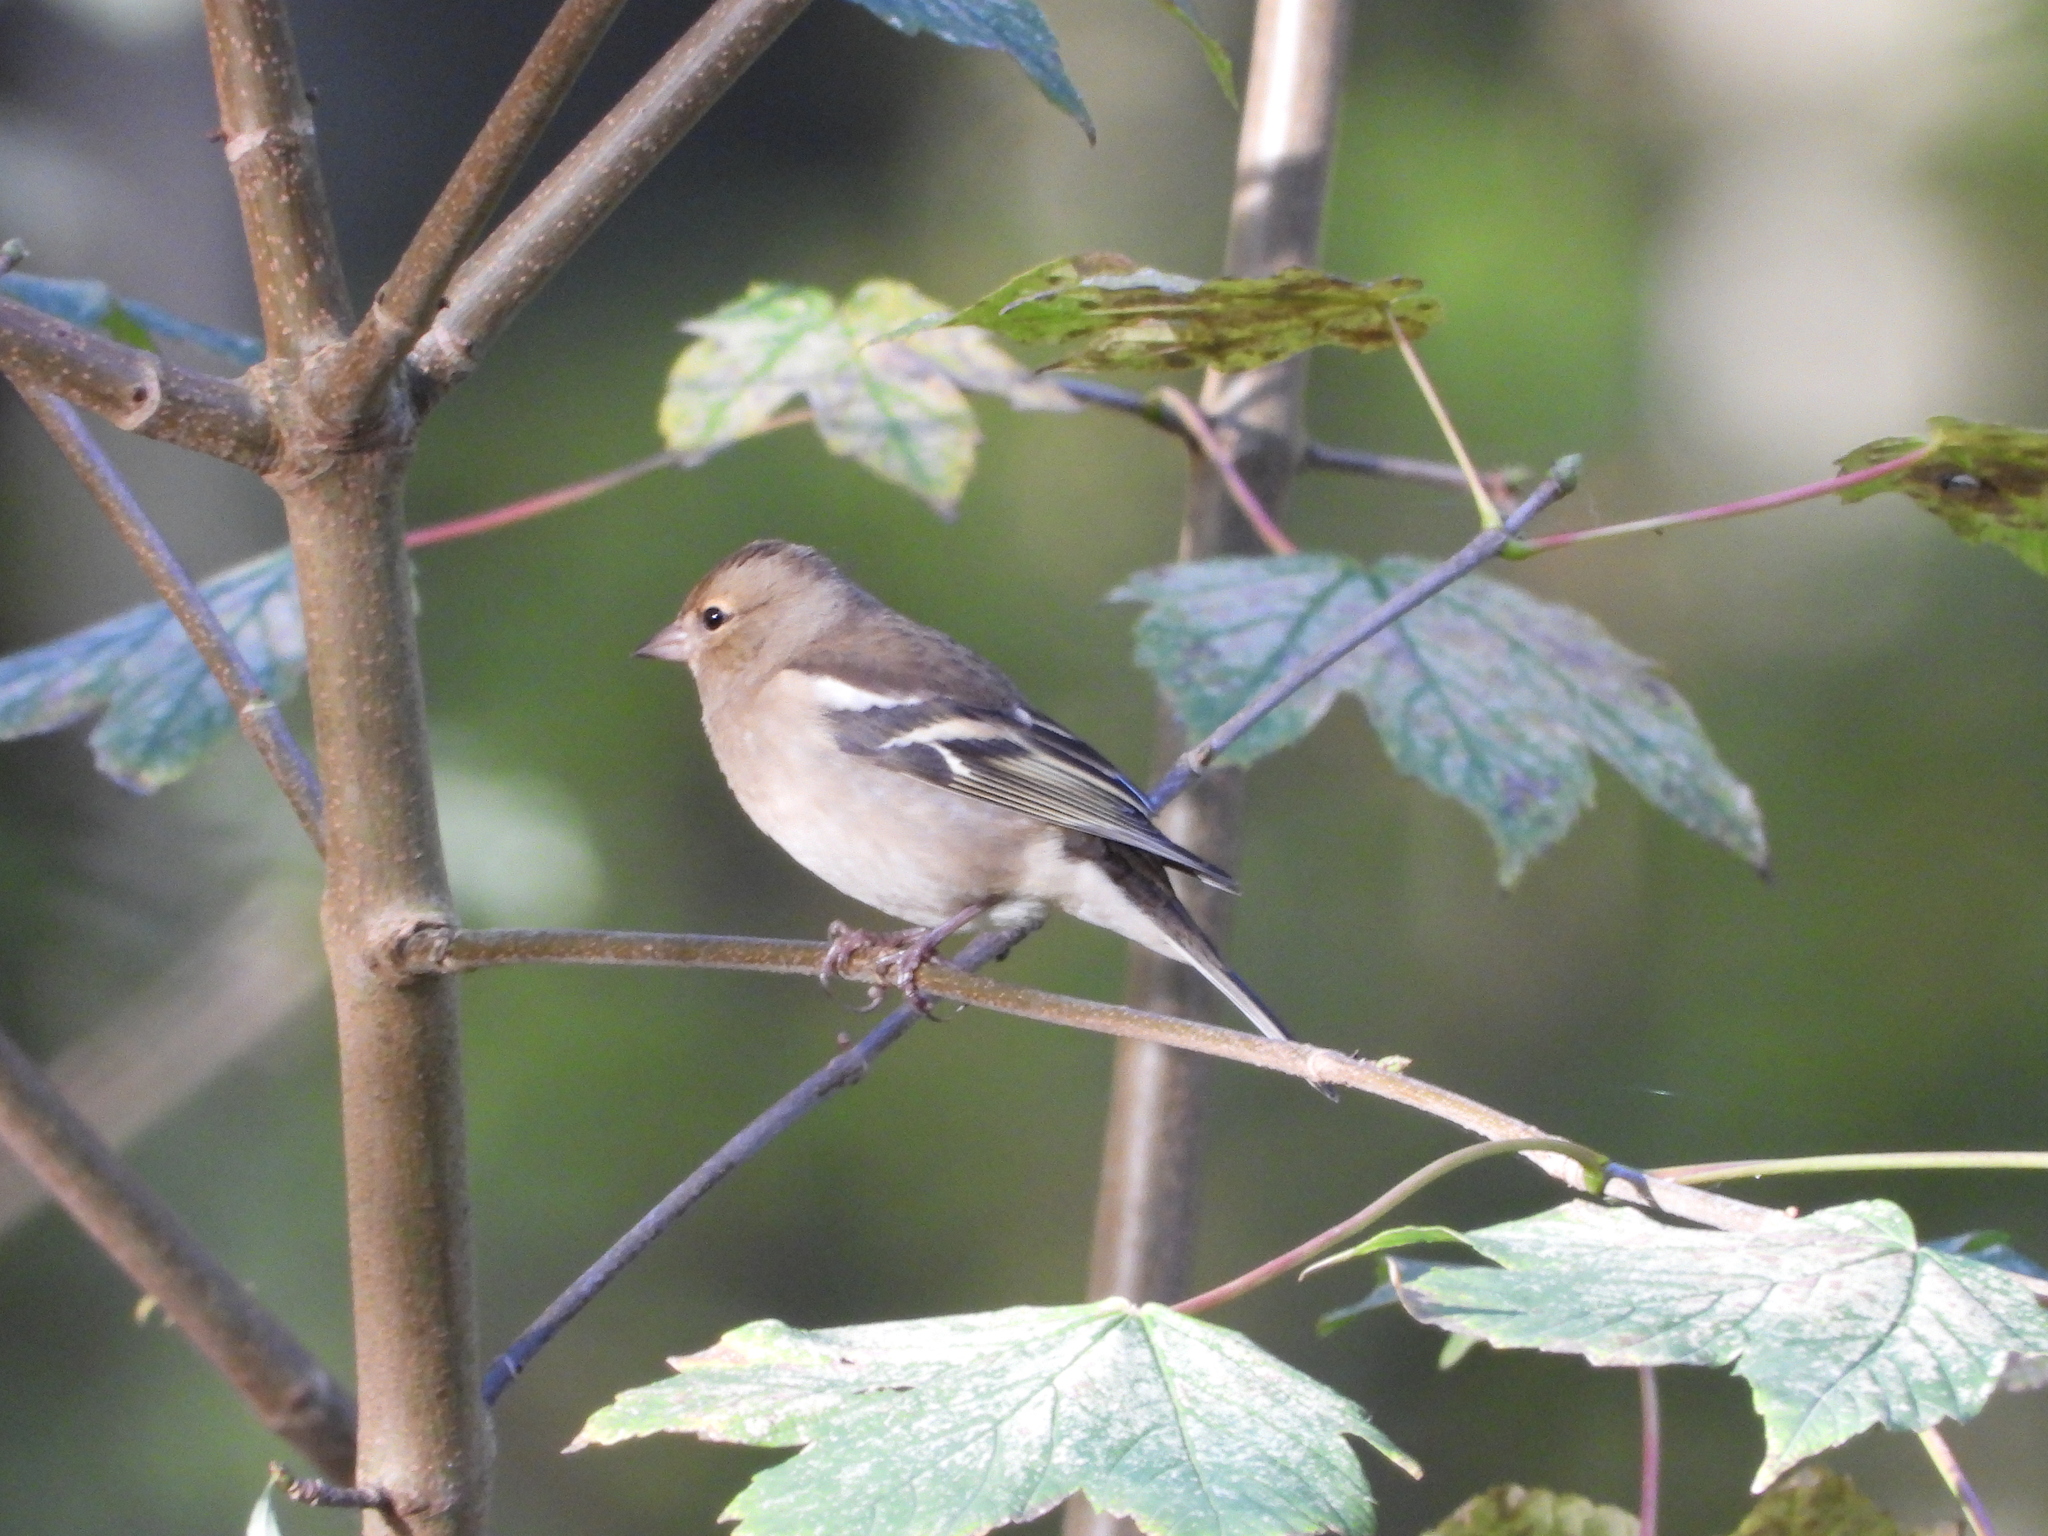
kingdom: Animalia
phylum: Chordata
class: Aves
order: Passeriformes
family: Fringillidae
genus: Fringilla
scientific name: Fringilla coelebs
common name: Common chaffinch
